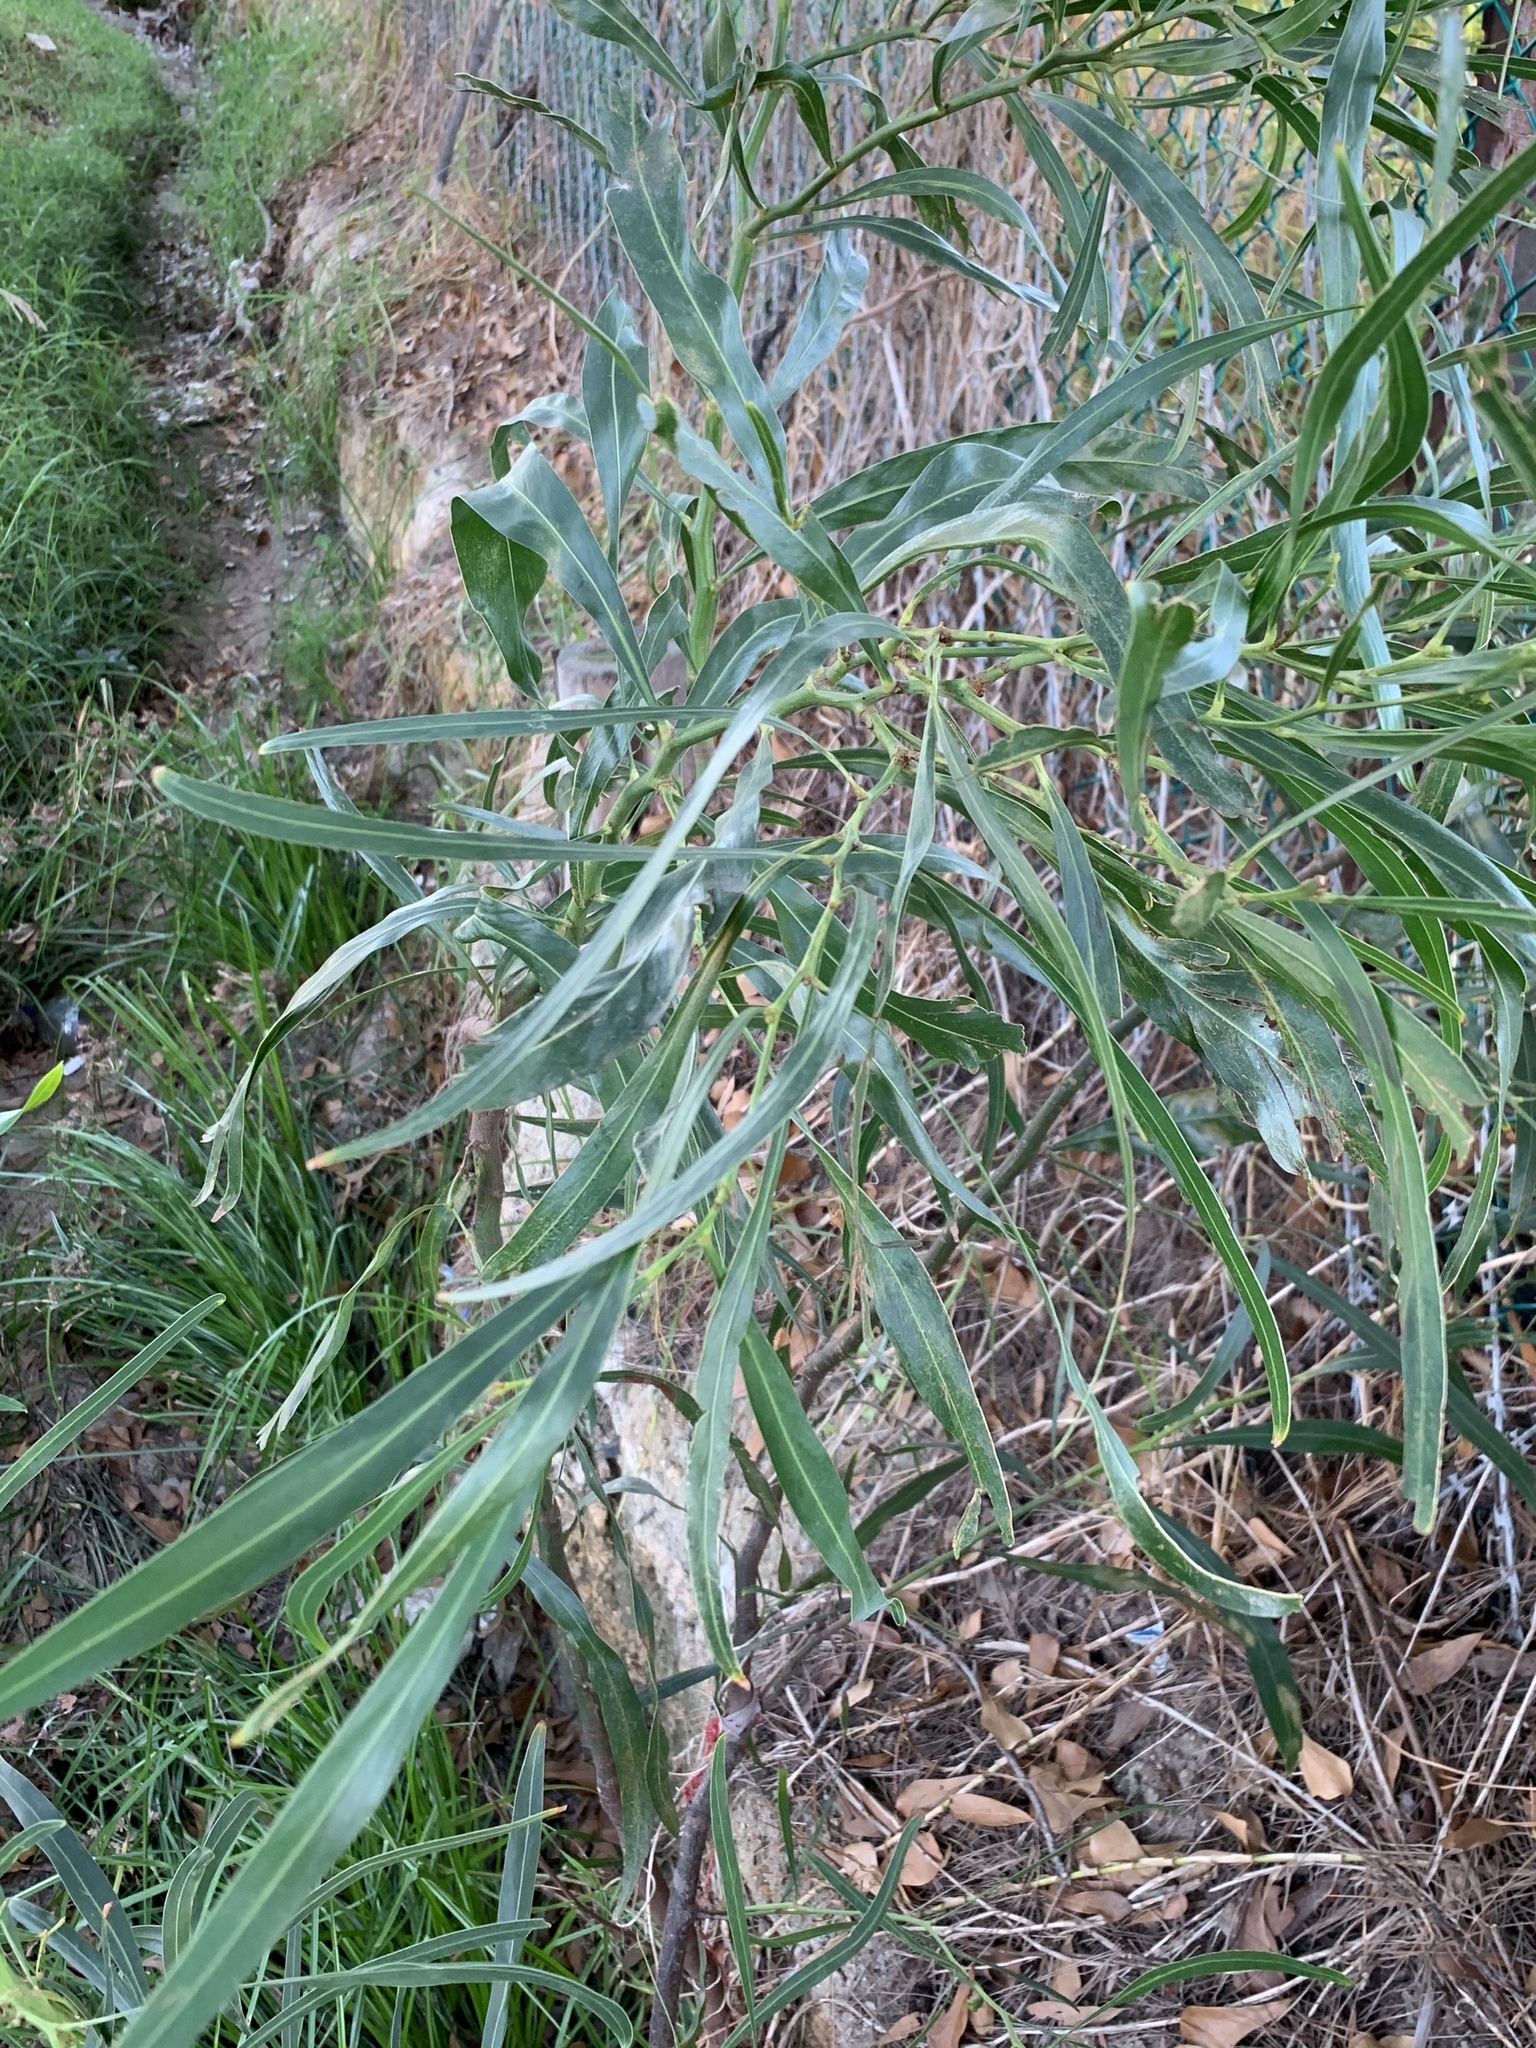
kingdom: Plantae
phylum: Tracheophyta
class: Magnoliopsida
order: Fabales
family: Fabaceae
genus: Acacia
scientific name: Acacia saligna
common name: Orange wattle
